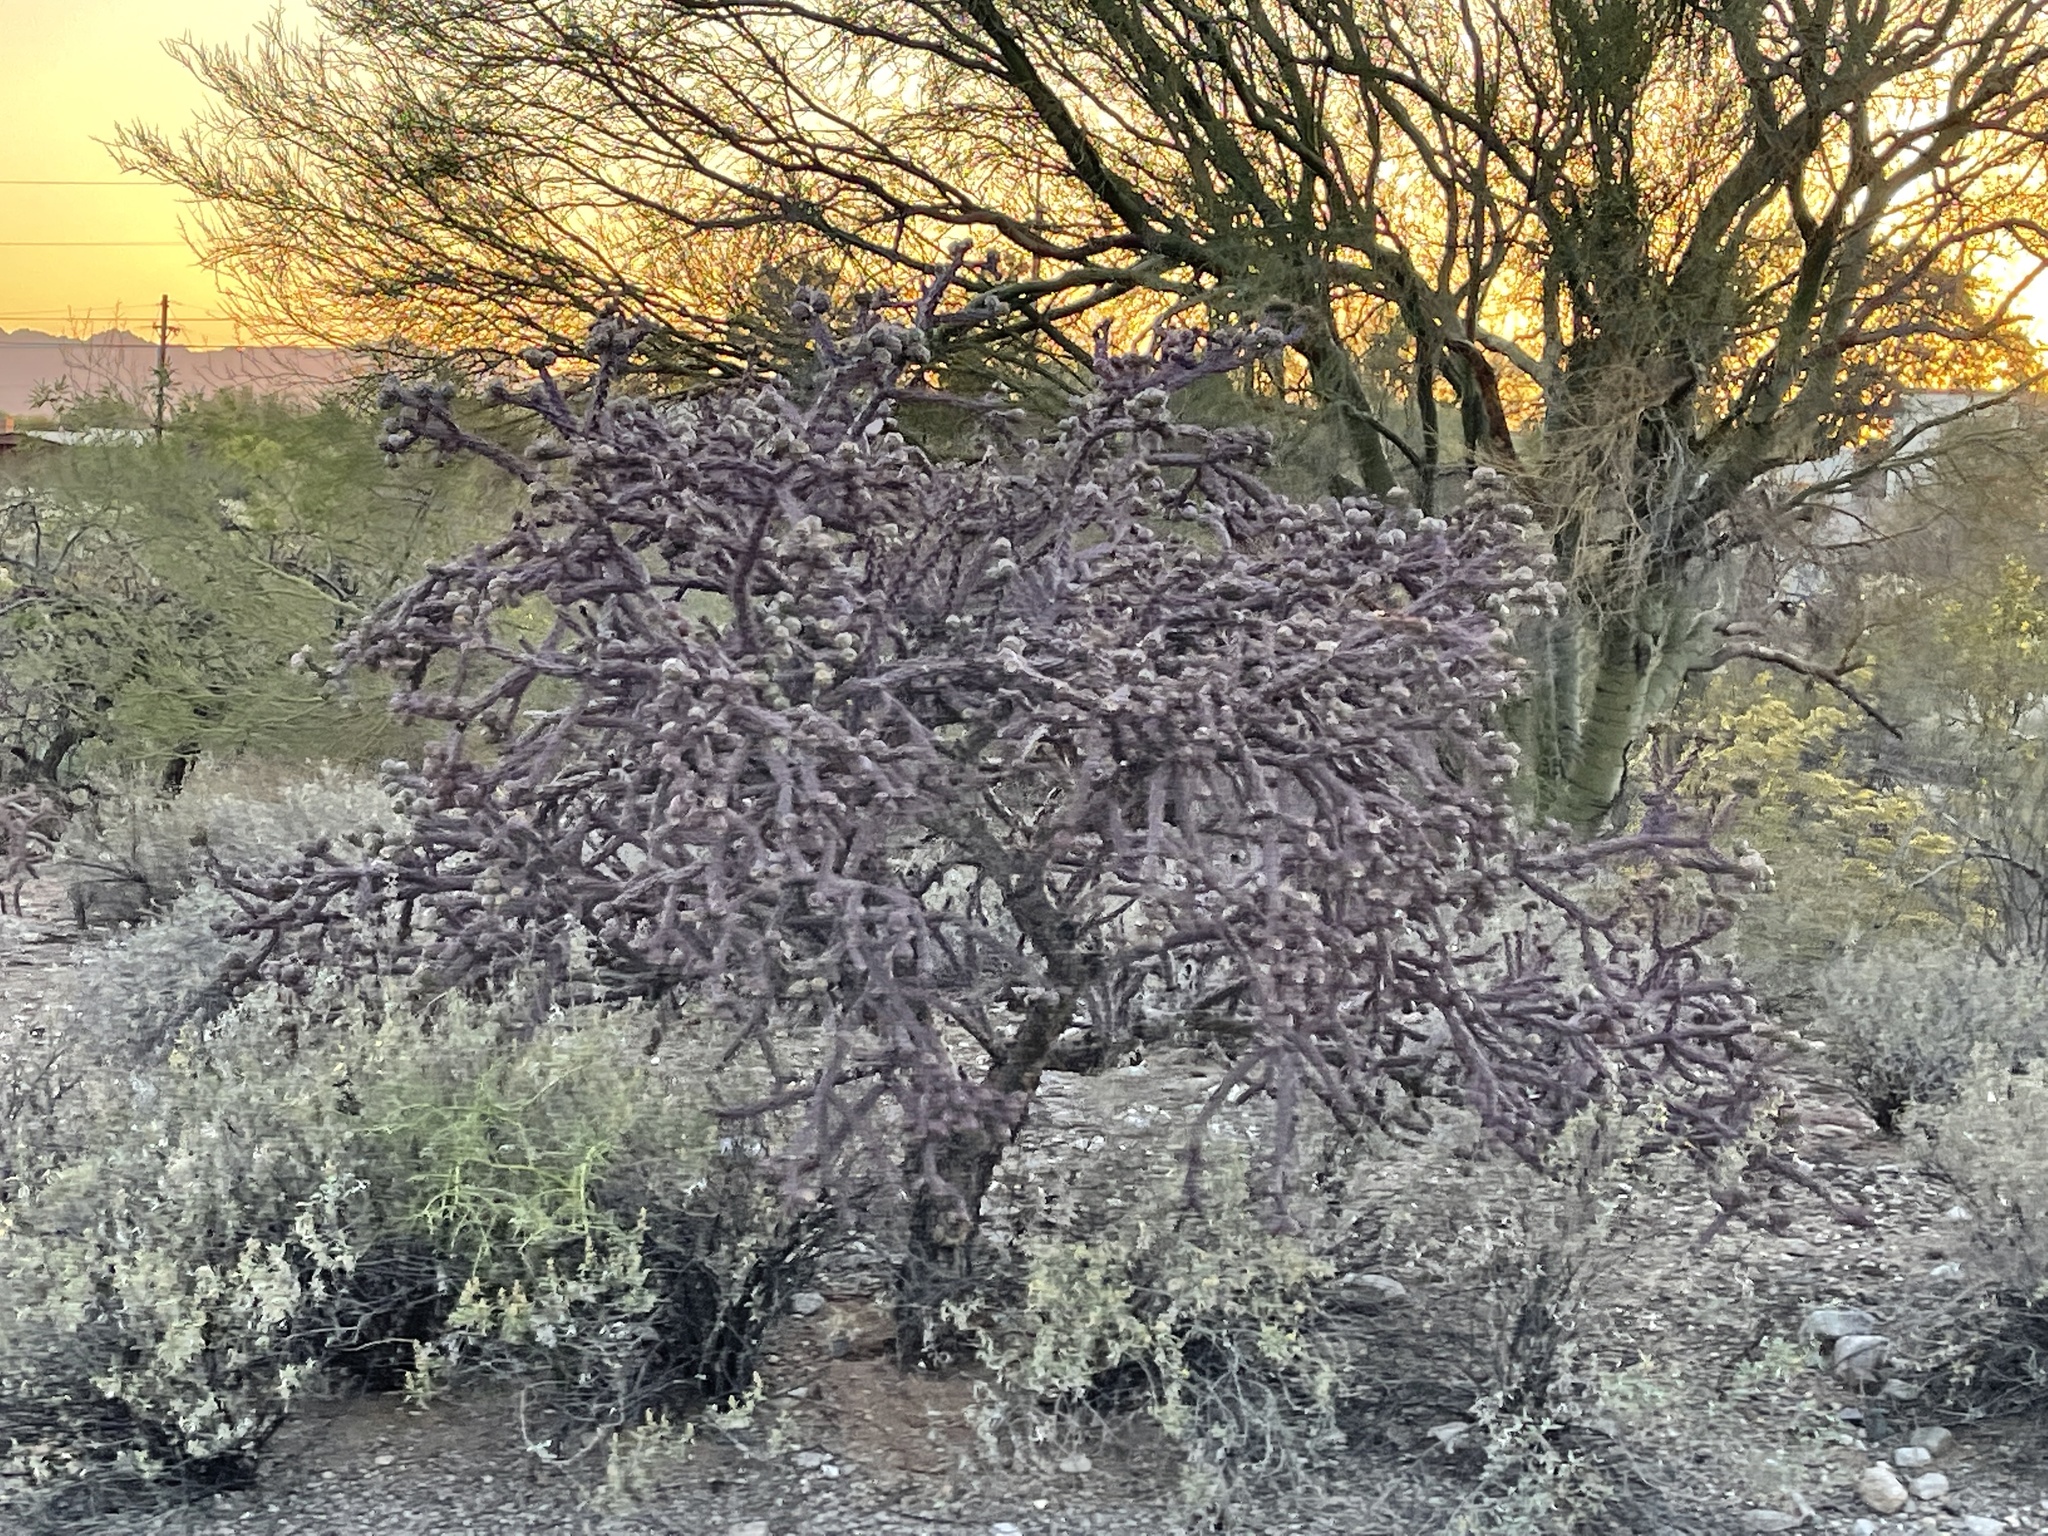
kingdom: Plantae
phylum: Tracheophyta
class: Magnoliopsida
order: Caryophyllales
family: Cactaceae
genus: Cylindropuntia
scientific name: Cylindropuntia thurberi
